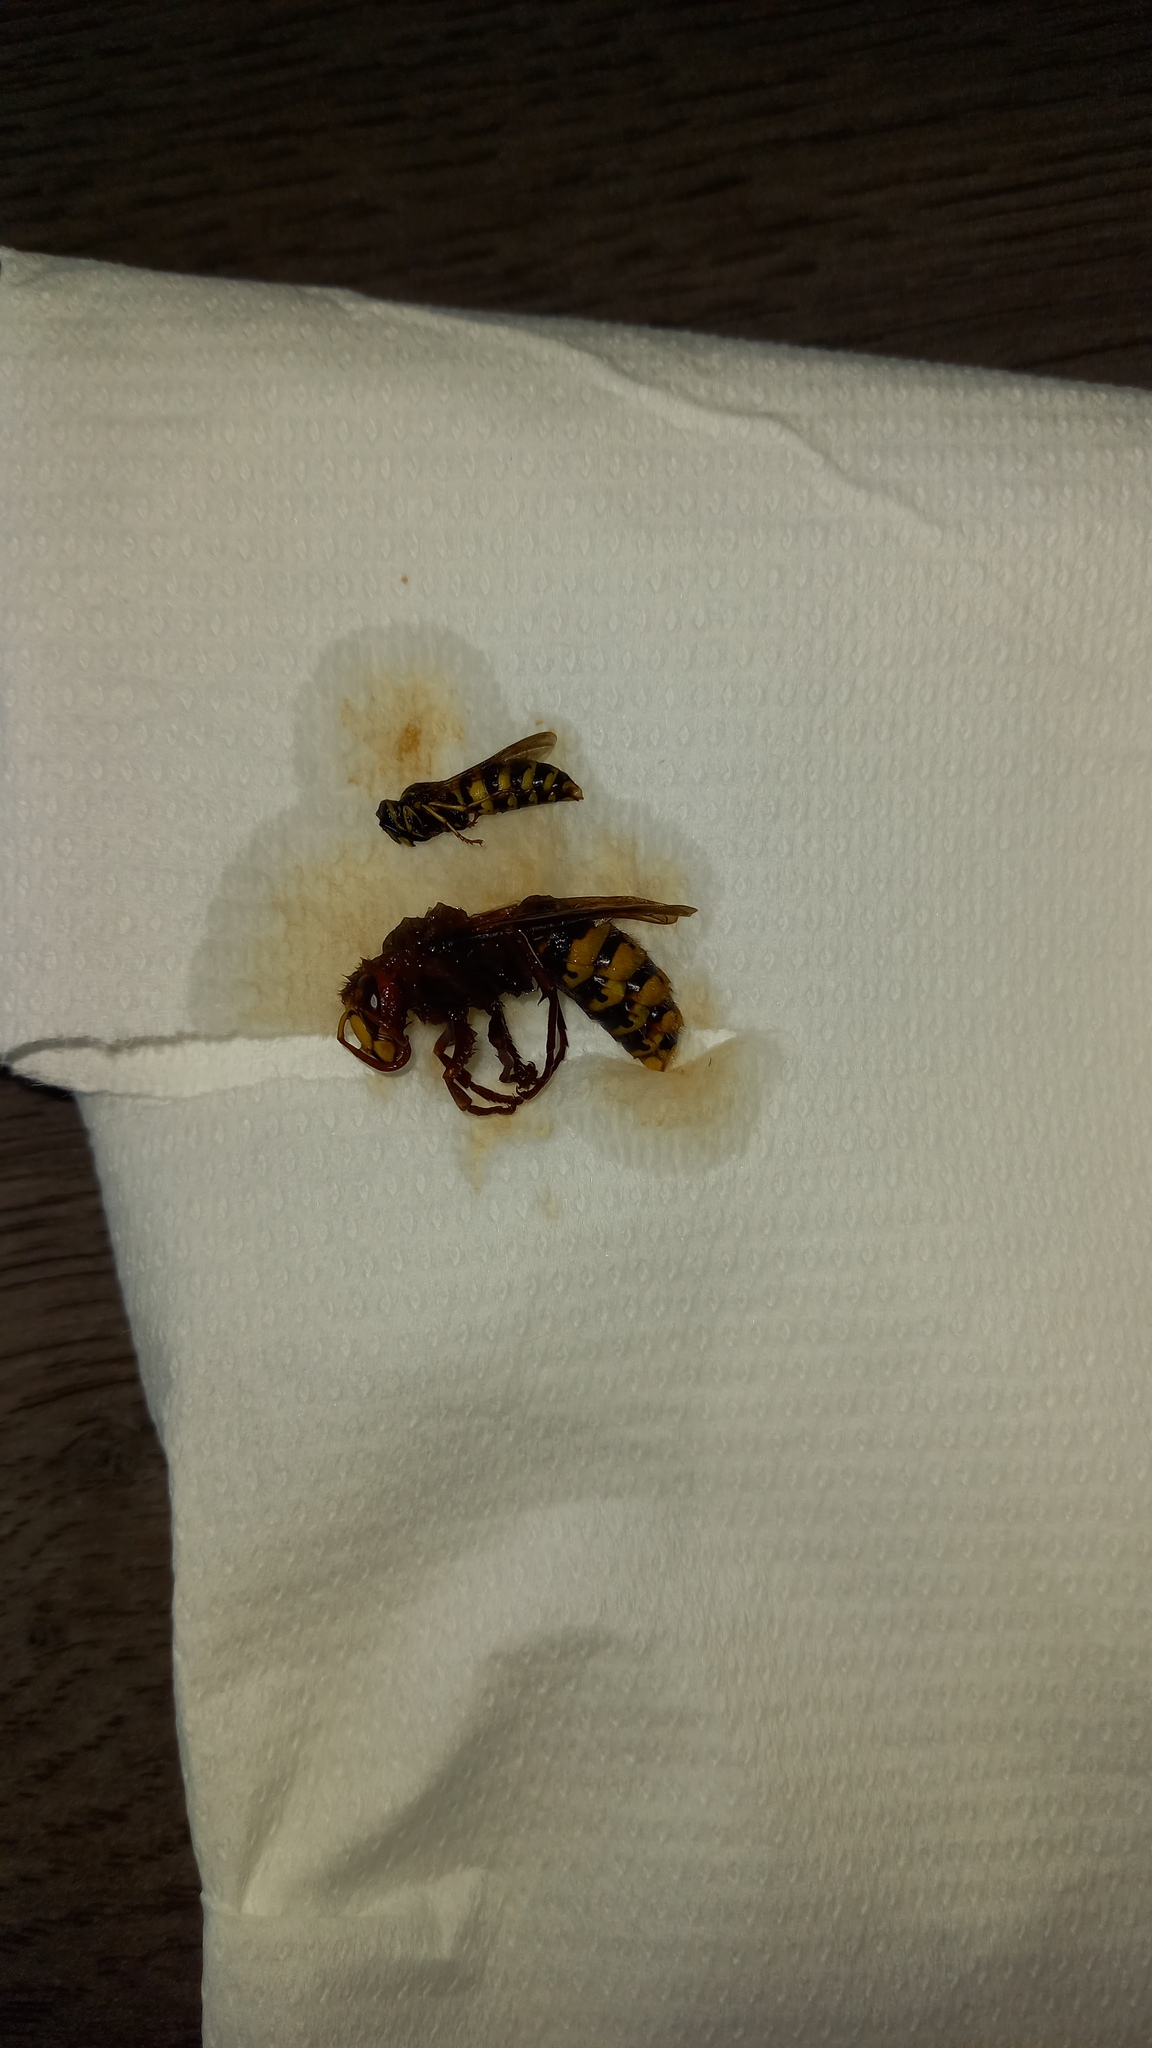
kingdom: Animalia
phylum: Arthropoda
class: Insecta
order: Hymenoptera
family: Vespidae
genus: Vespa
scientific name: Vespa crabro
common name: Hornet
